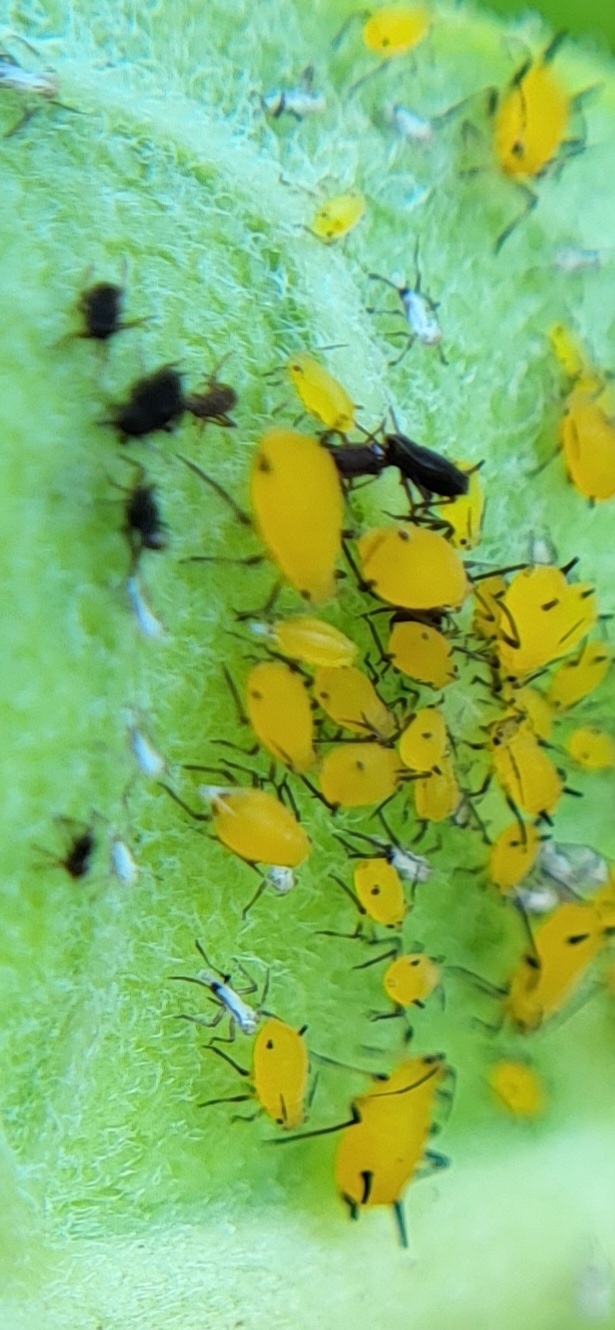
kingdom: Animalia
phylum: Arthropoda
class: Insecta
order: Hemiptera
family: Aphididae
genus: Aphis
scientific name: Aphis nerii
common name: Oleander aphid
